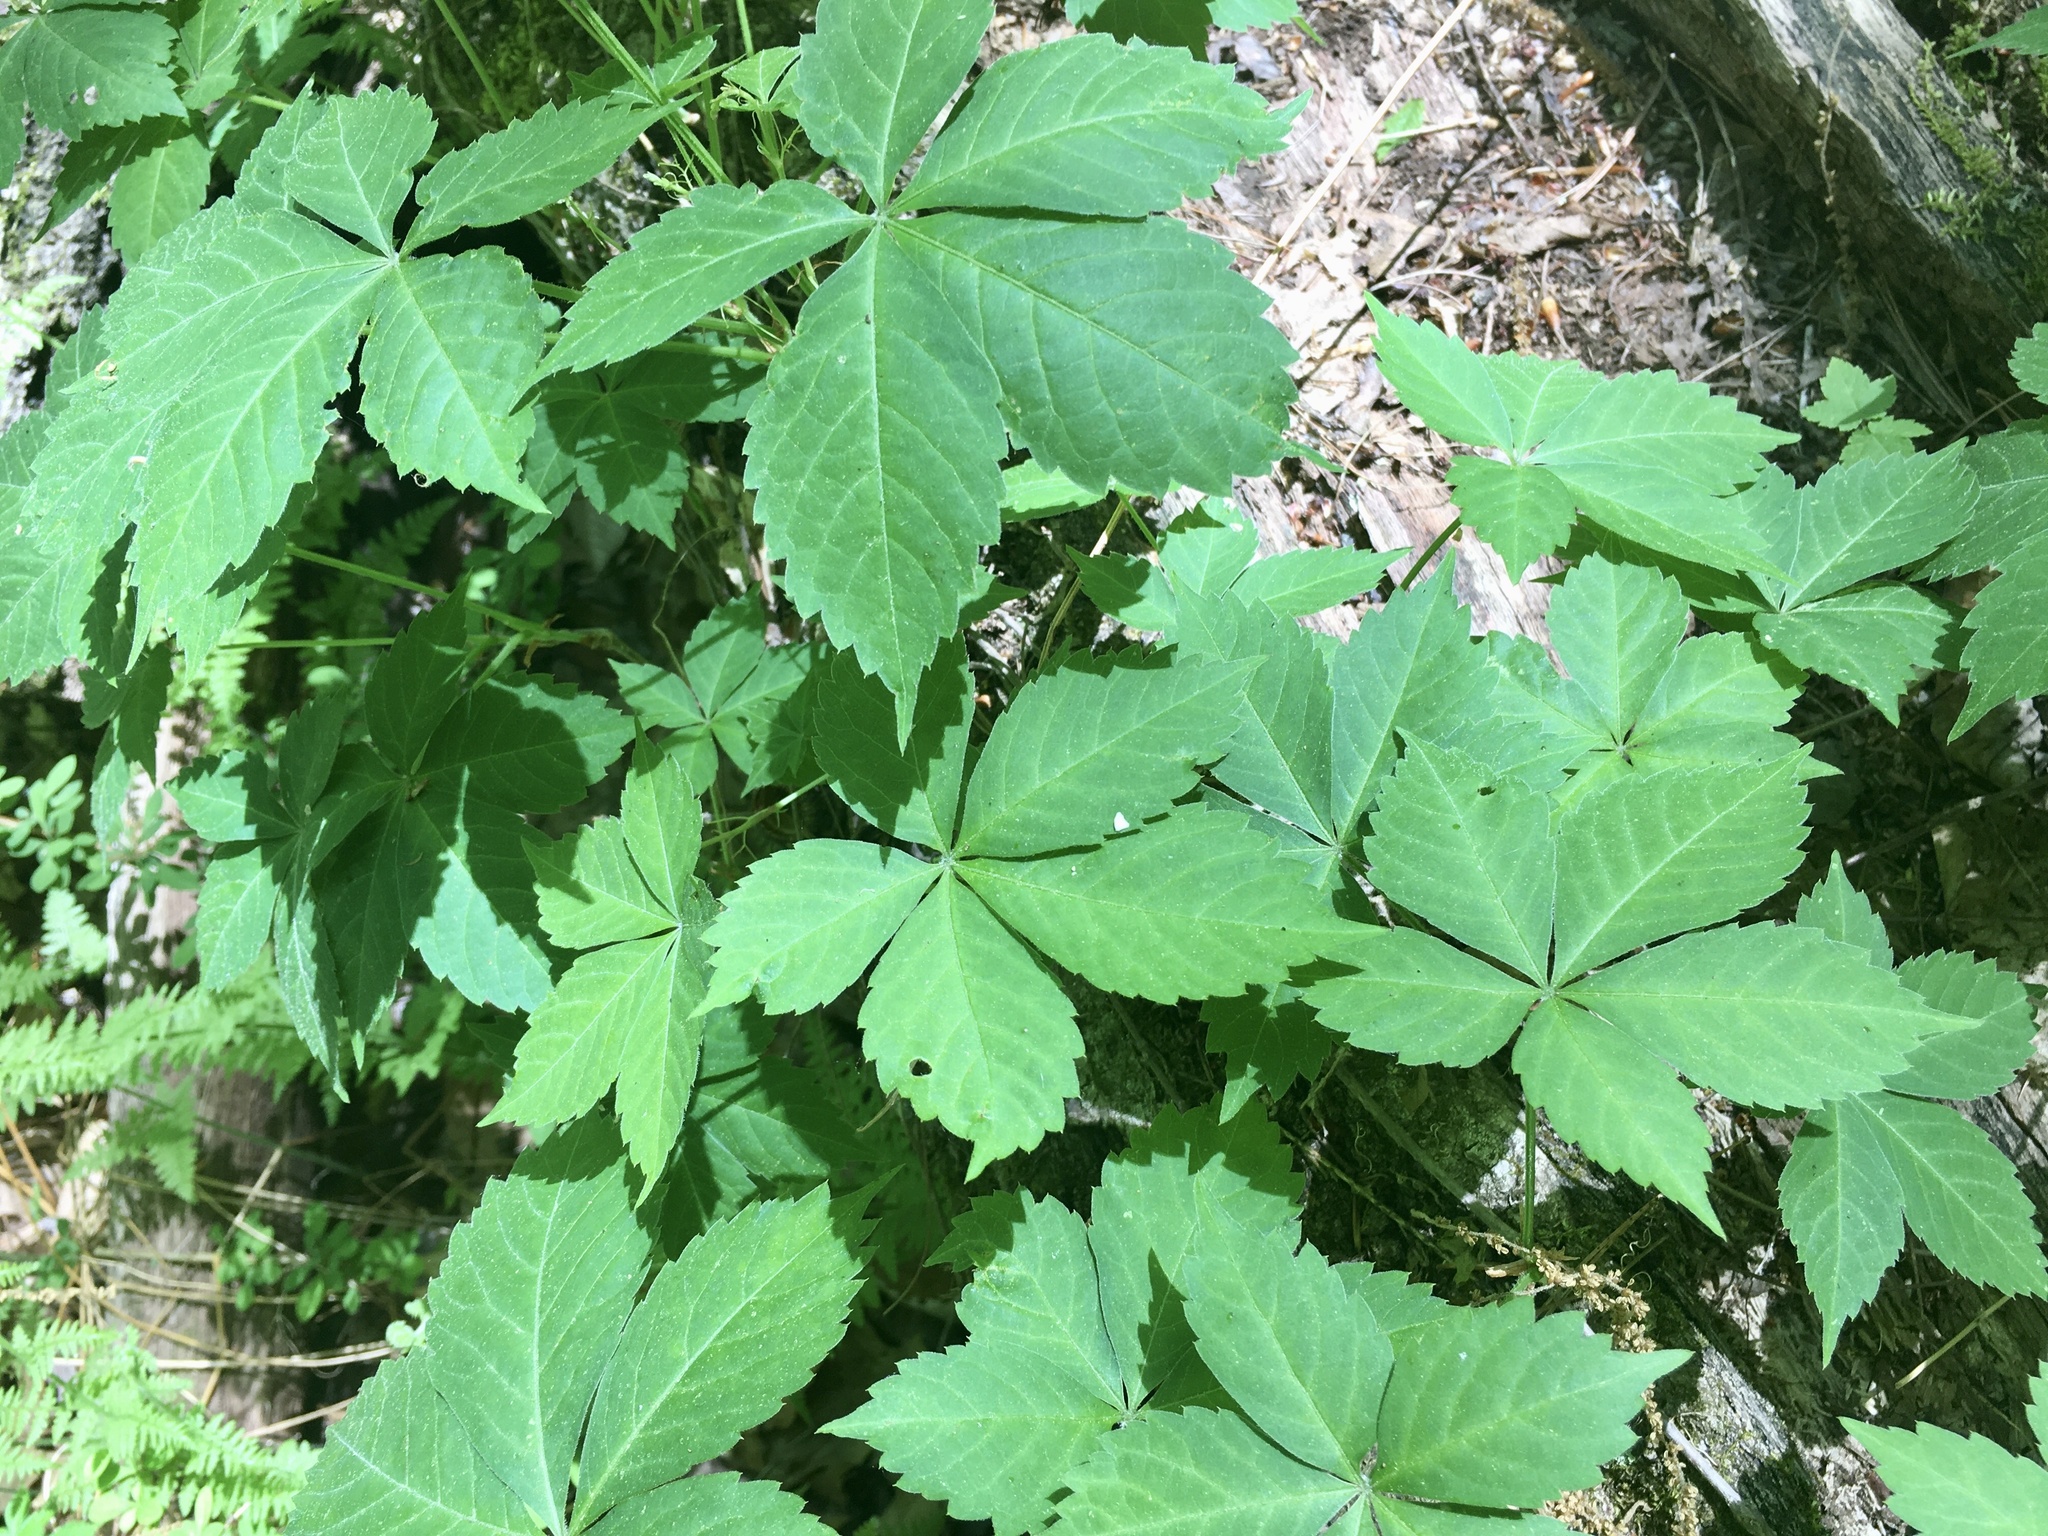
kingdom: Plantae
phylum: Tracheophyta
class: Magnoliopsida
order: Vitales
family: Vitaceae
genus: Parthenocissus
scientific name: Parthenocissus quinquefolia
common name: Virginia-creeper
